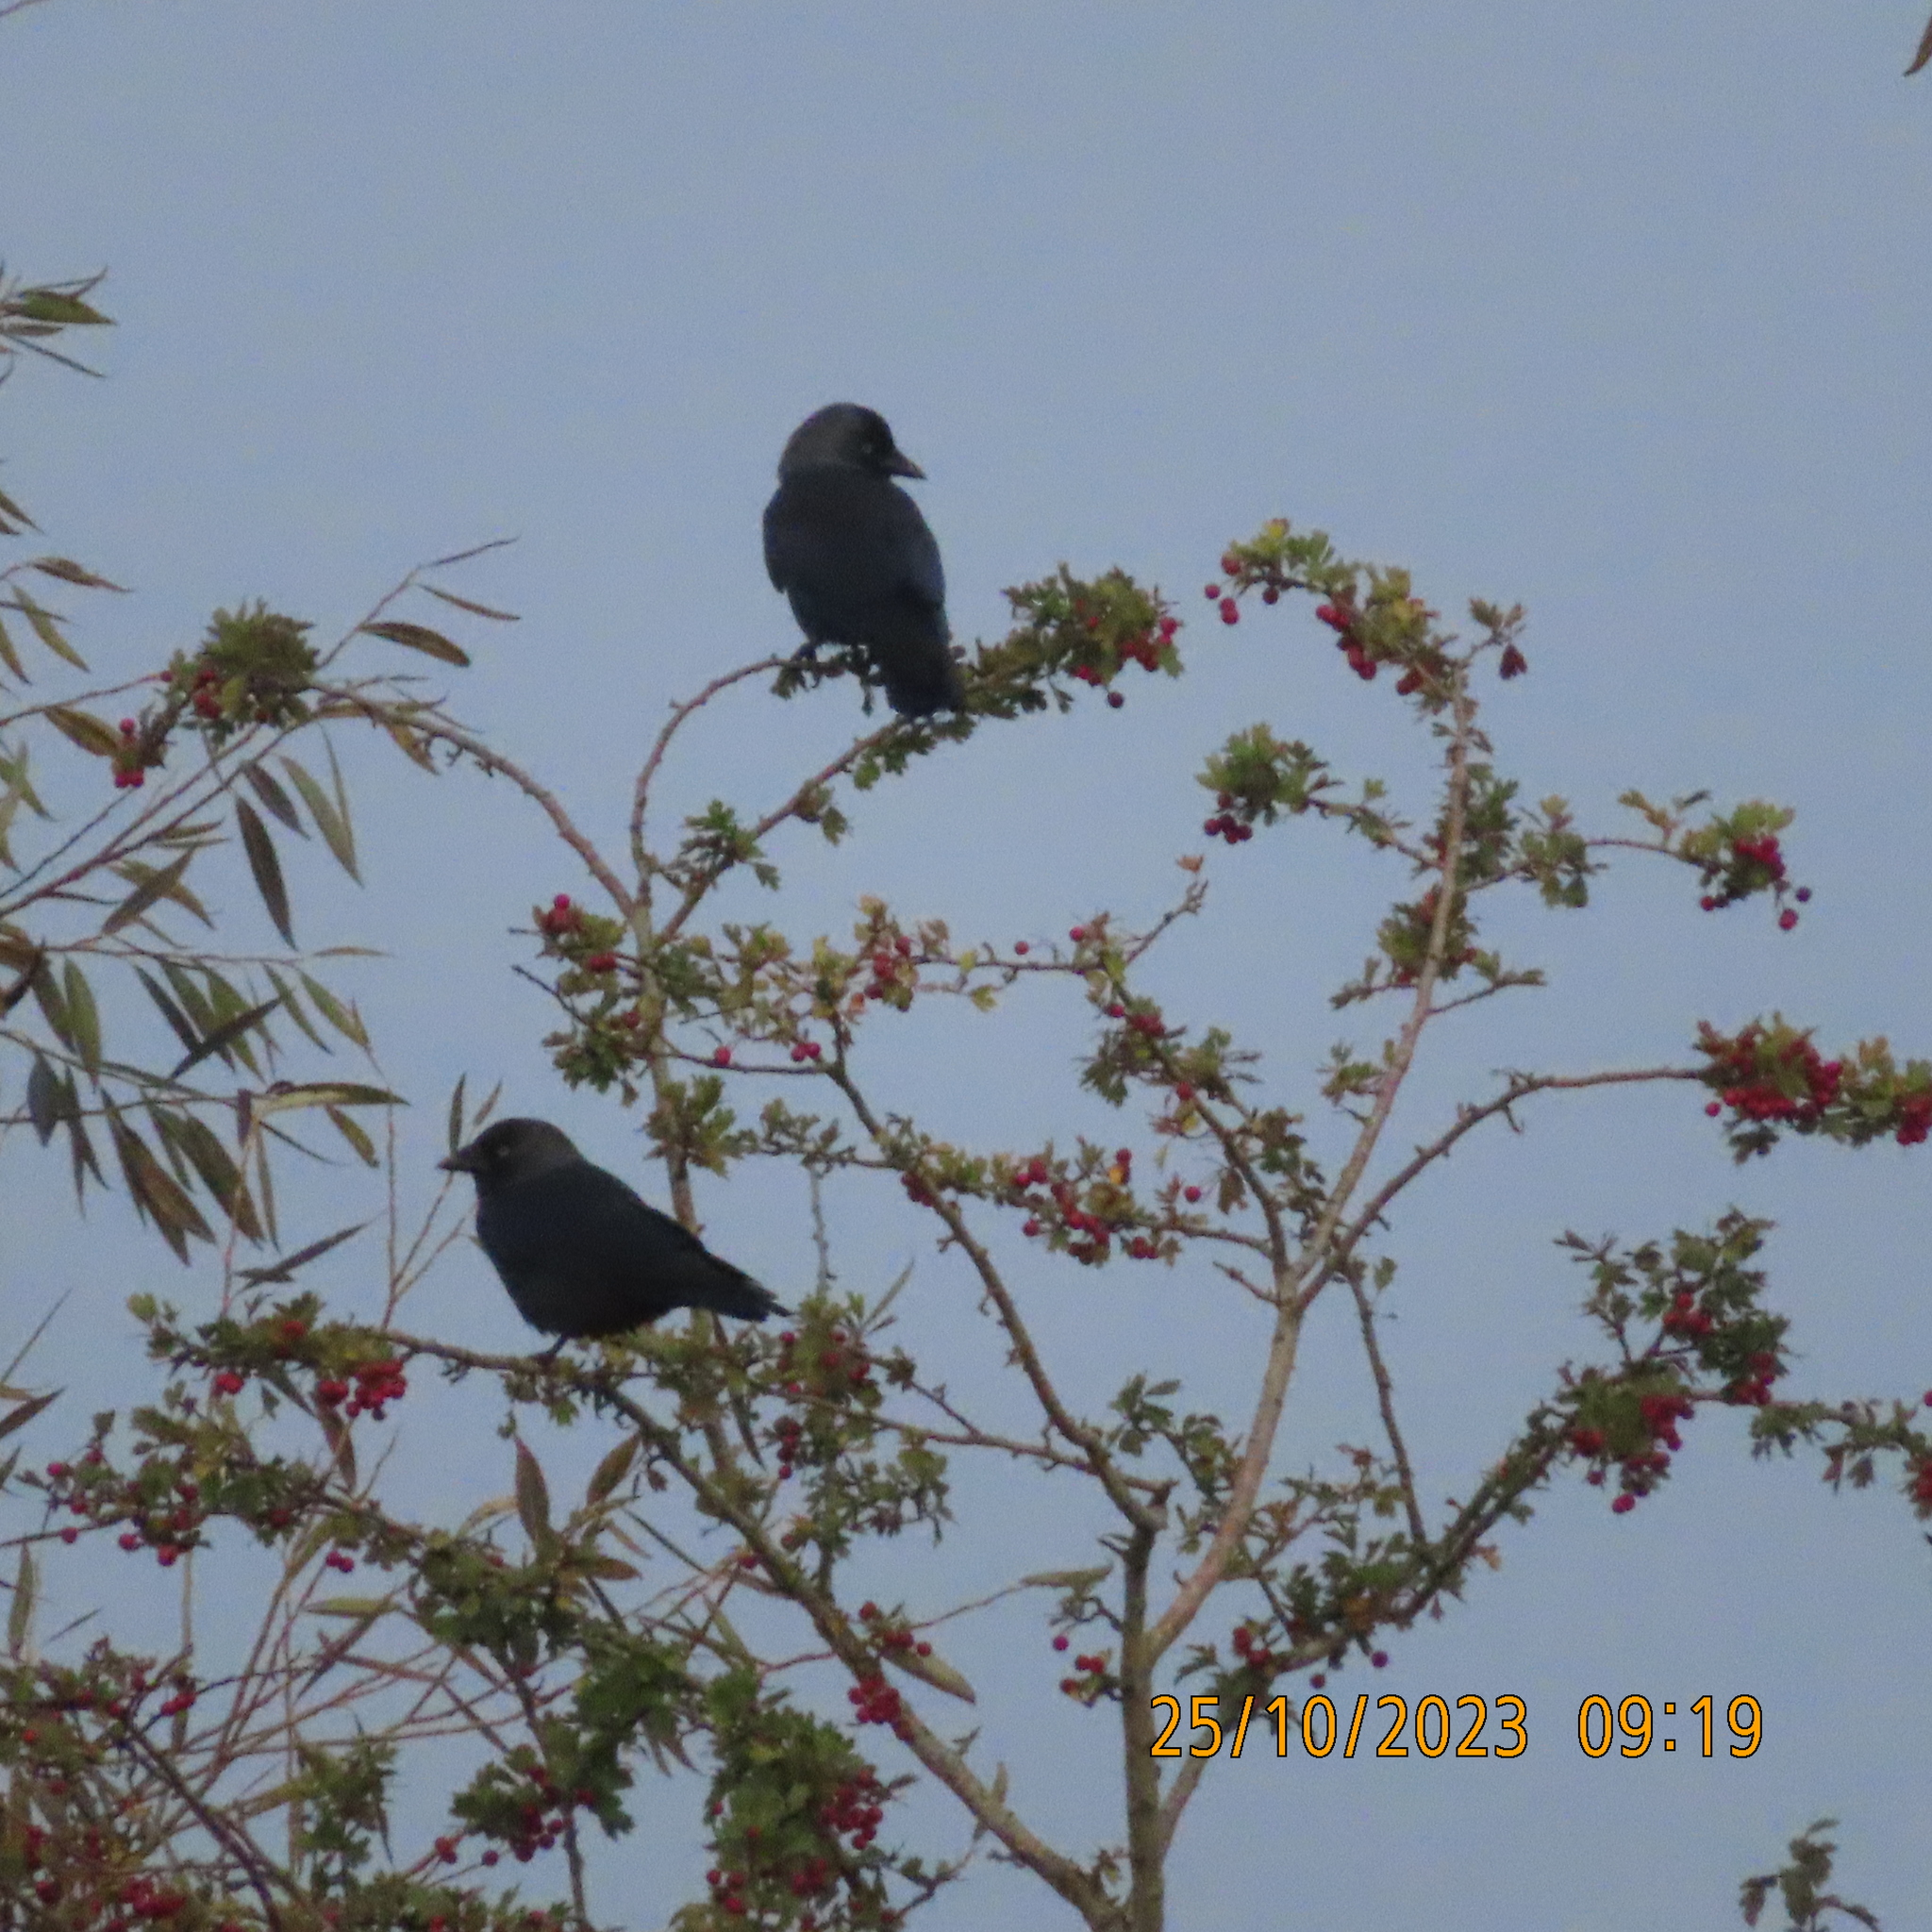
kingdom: Animalia
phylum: Chordata
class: Aves
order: Passeriformes
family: Corvidae
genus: Coloeus
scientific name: Coloeus monedula
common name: Western jackdaw
